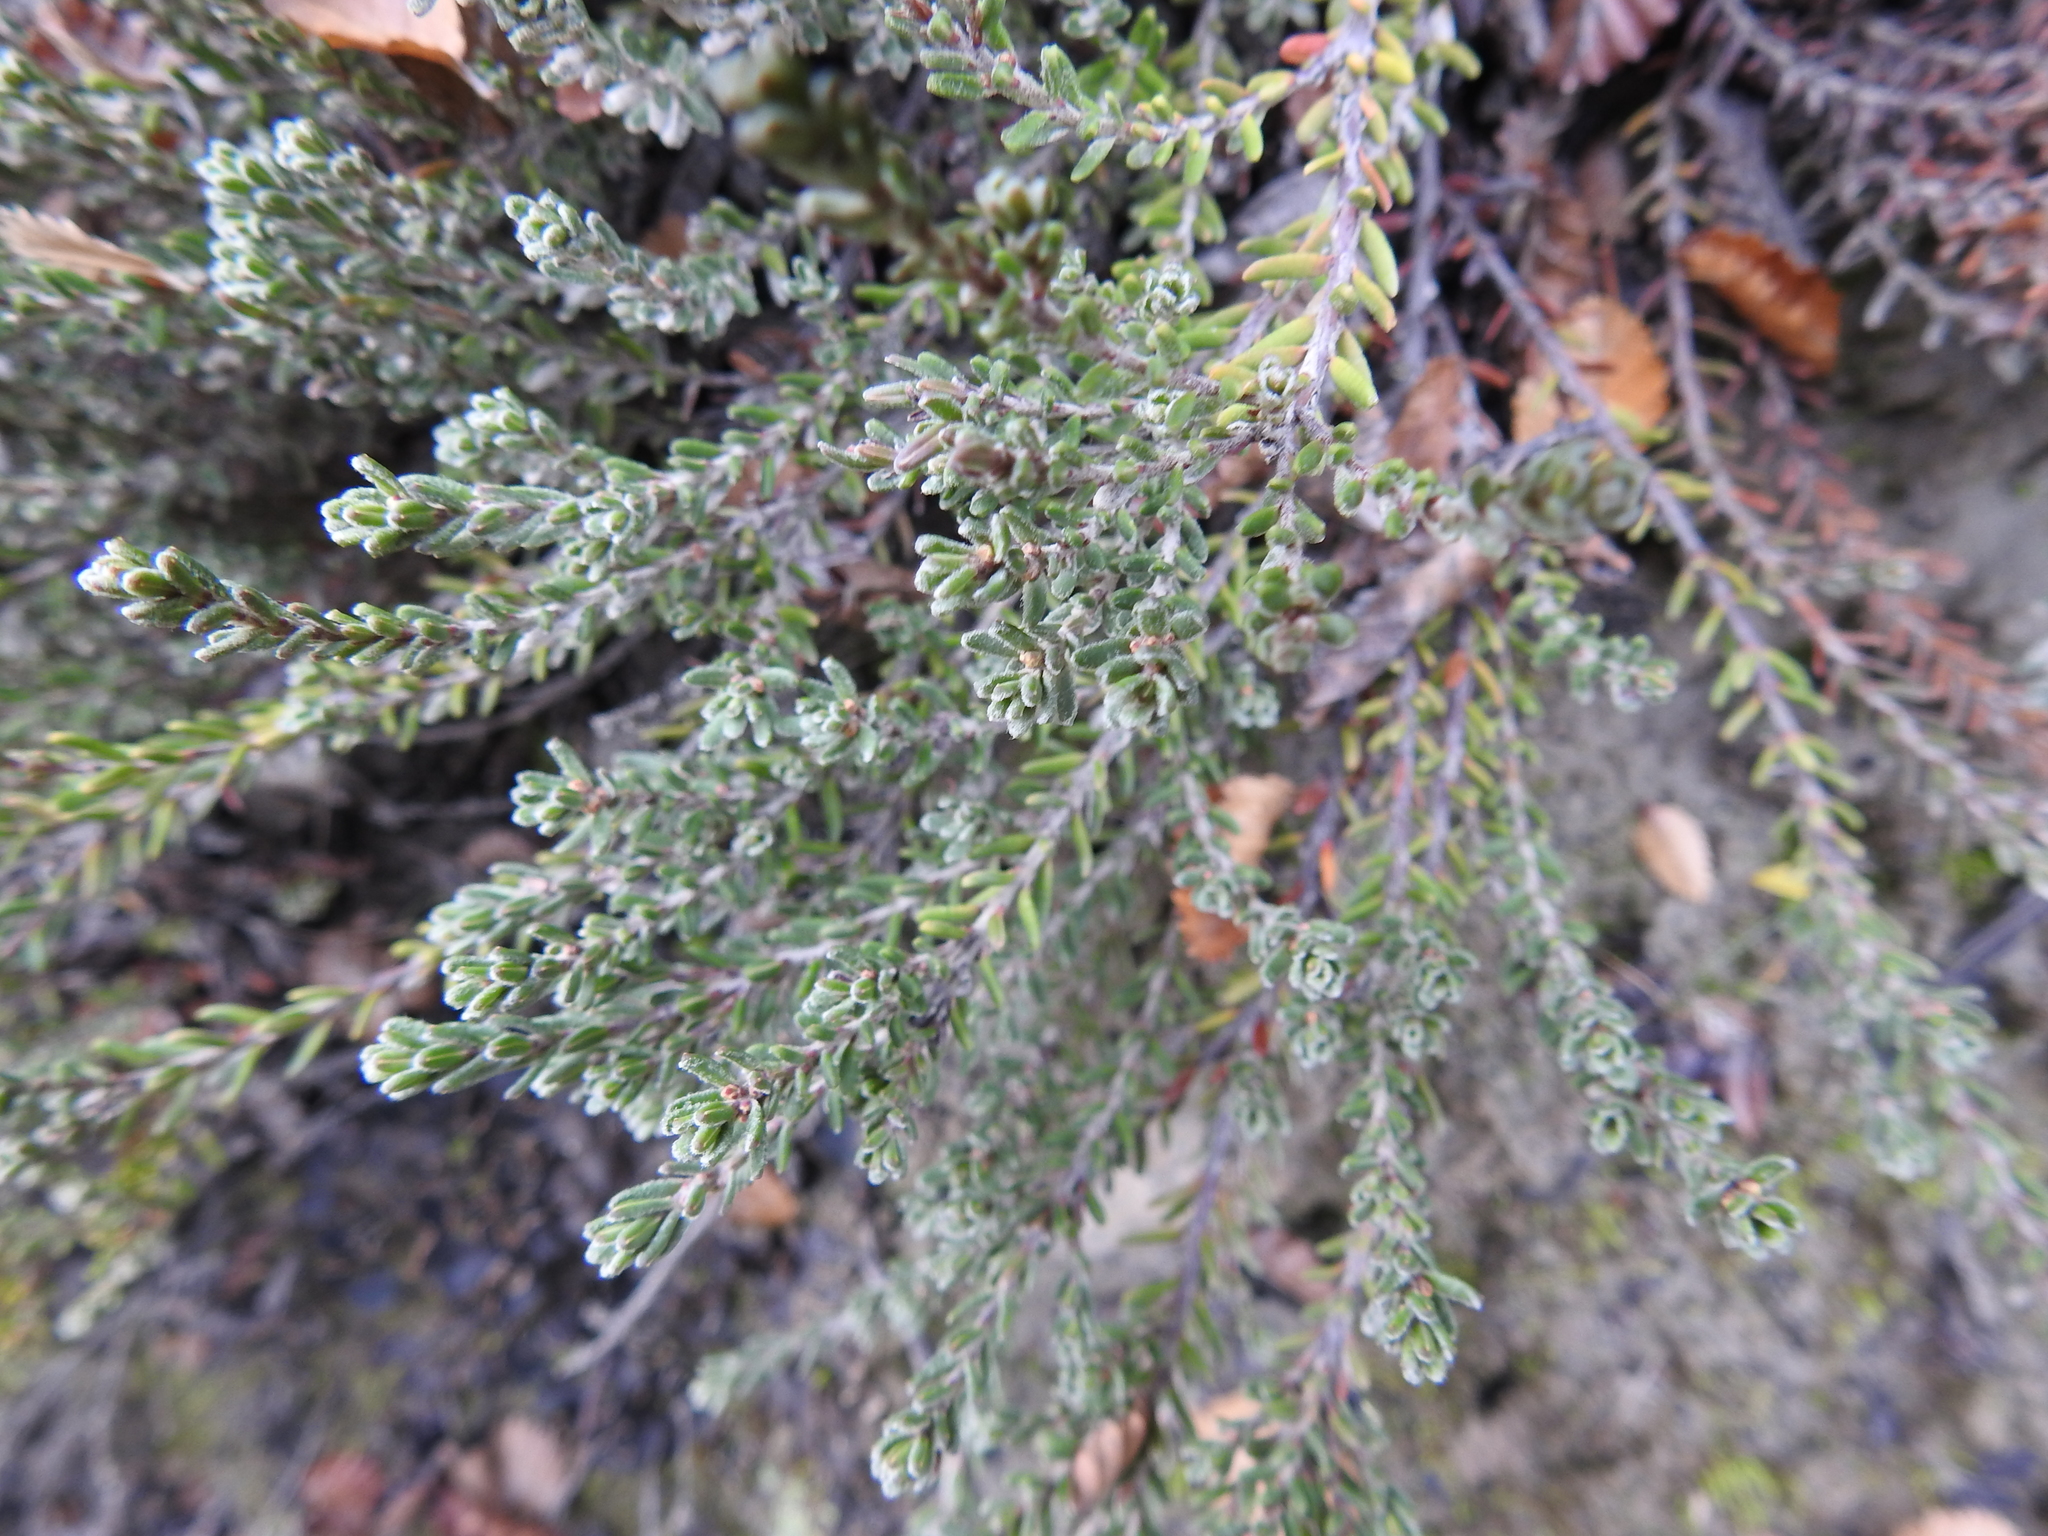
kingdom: Plantae
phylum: Tracheophyta
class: Magnoliopsida
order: Ericales
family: Ericaceae
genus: Empetrum
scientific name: Empetrum rubrum
